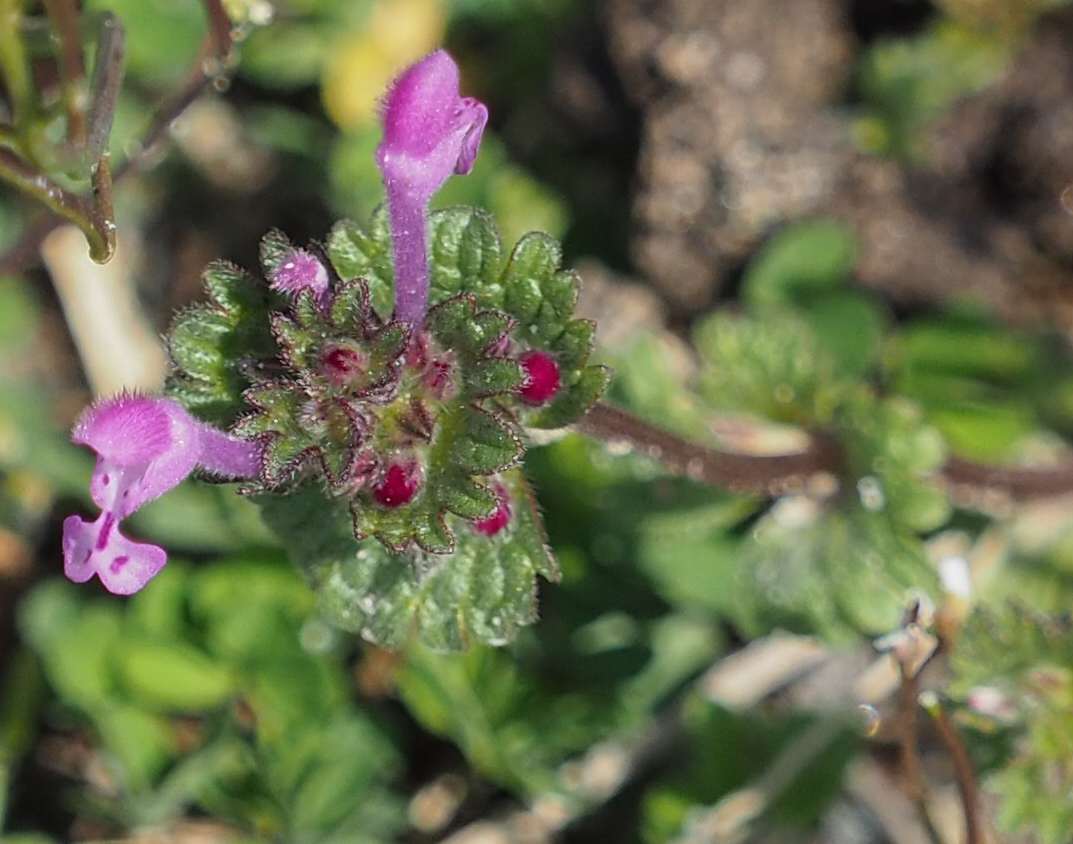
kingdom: Plantae
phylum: Tracheophyta
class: Magnoliopsida
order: Lamiales
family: Lamiaceae
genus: Lamium
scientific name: Lamium amplexicaule
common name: Henbit dead-nettle
